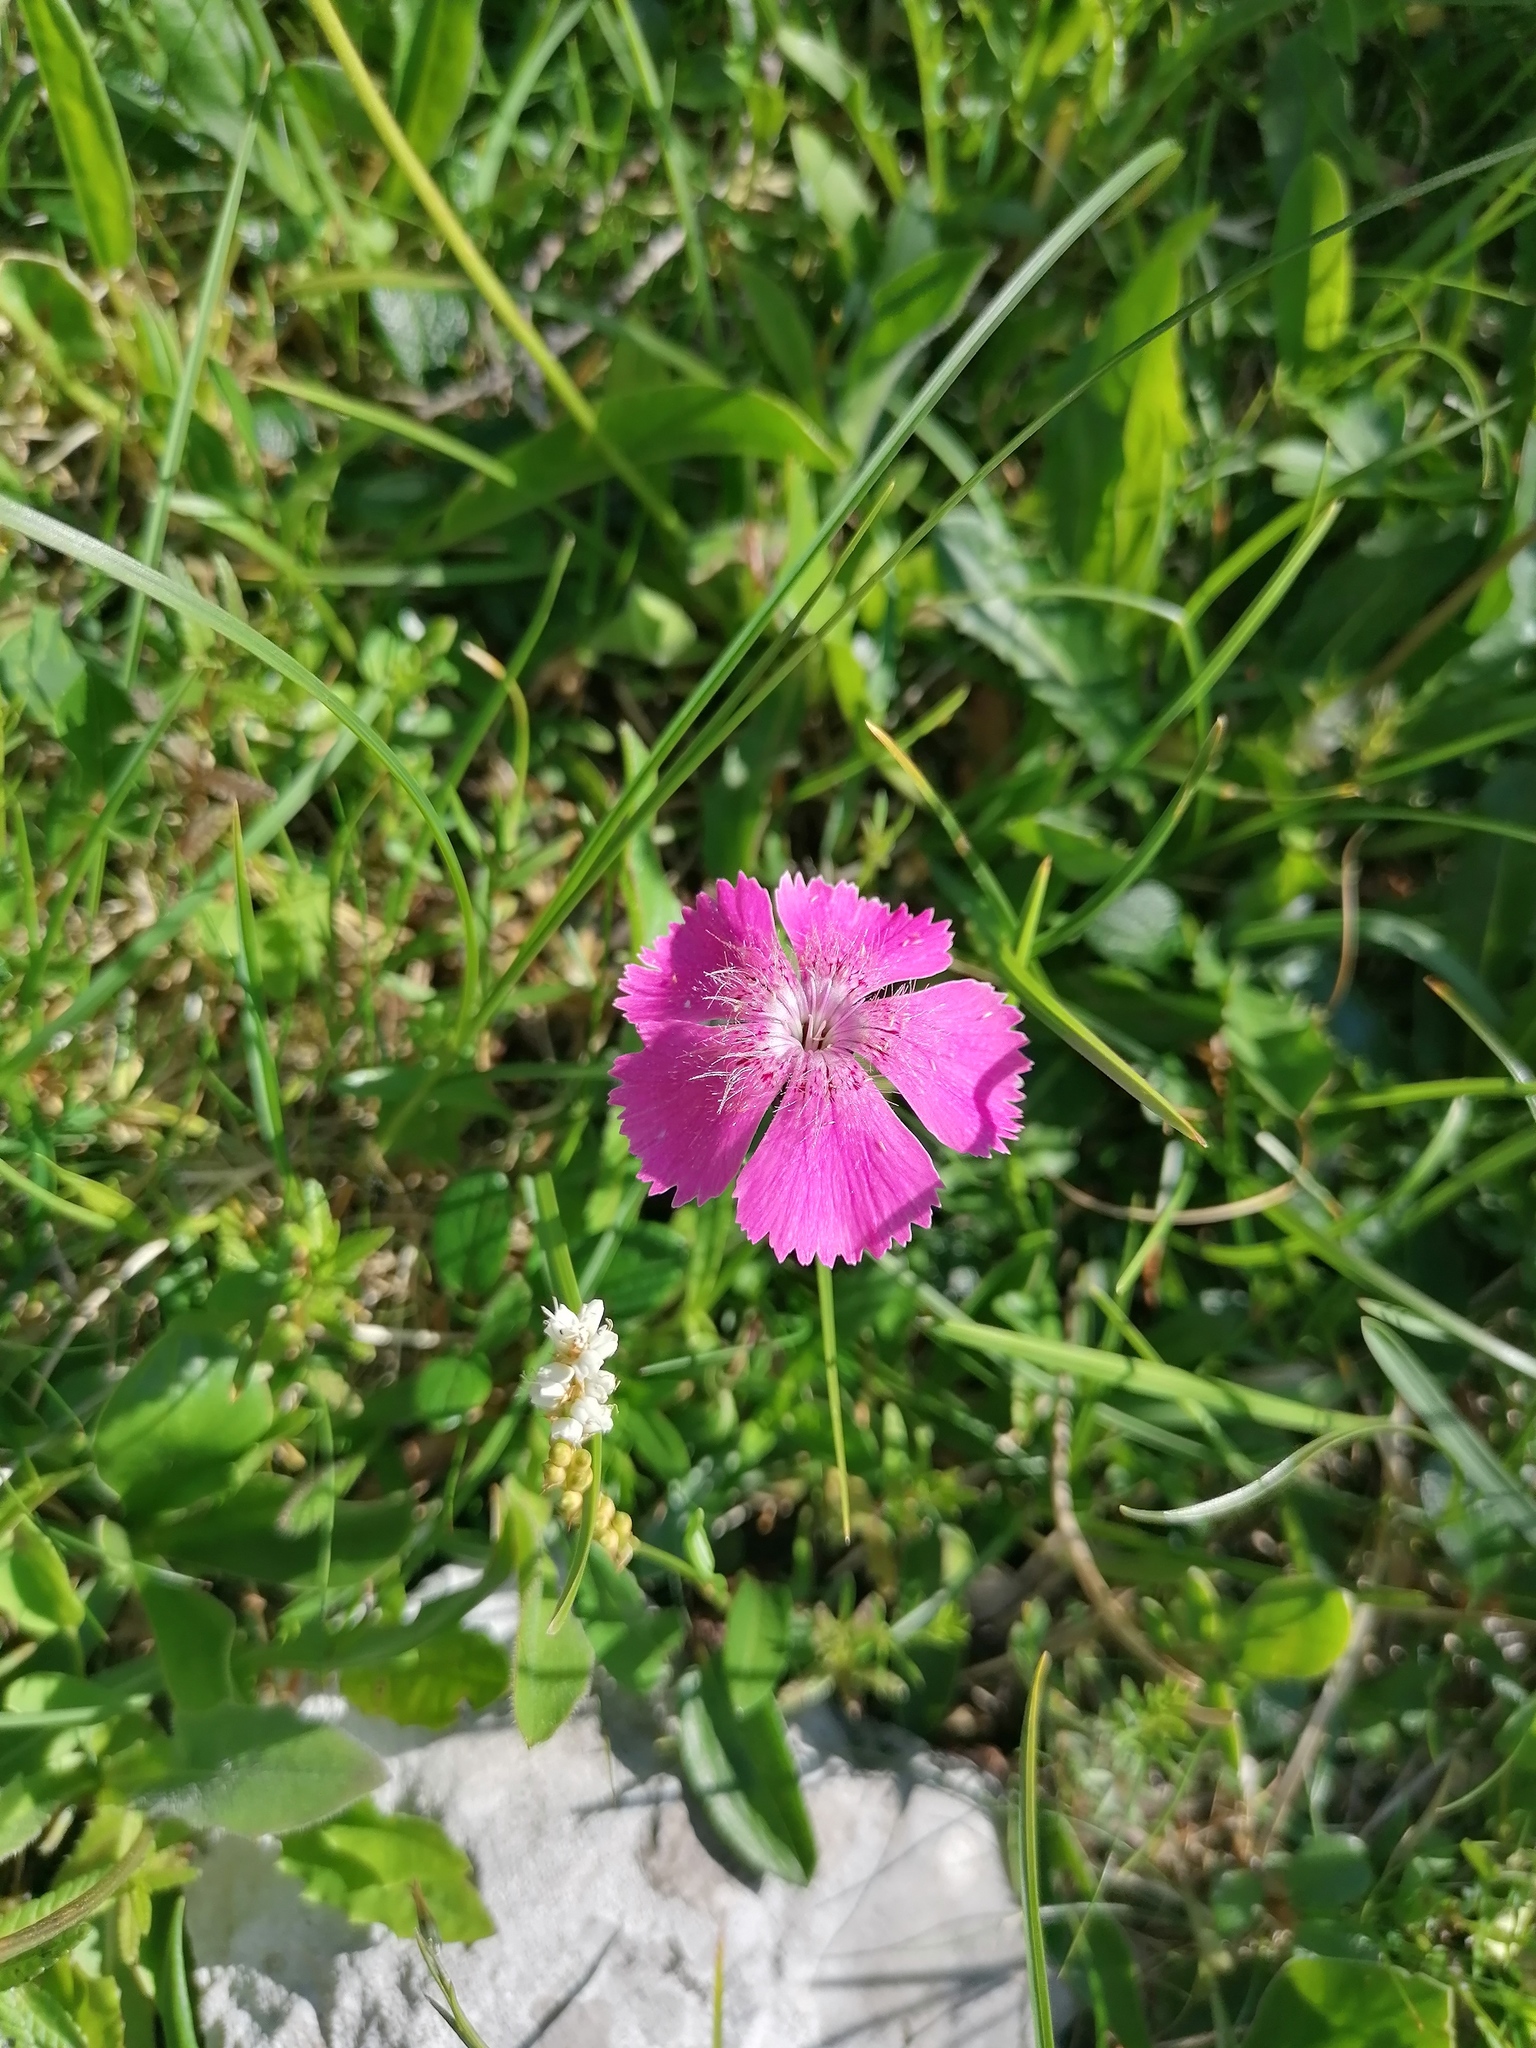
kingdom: Plantae
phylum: Tracheophyta
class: Magnoliopsida
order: Caryophyllales
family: Caryophyllaceae
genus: Dianthus
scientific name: Dianthus alpinus
